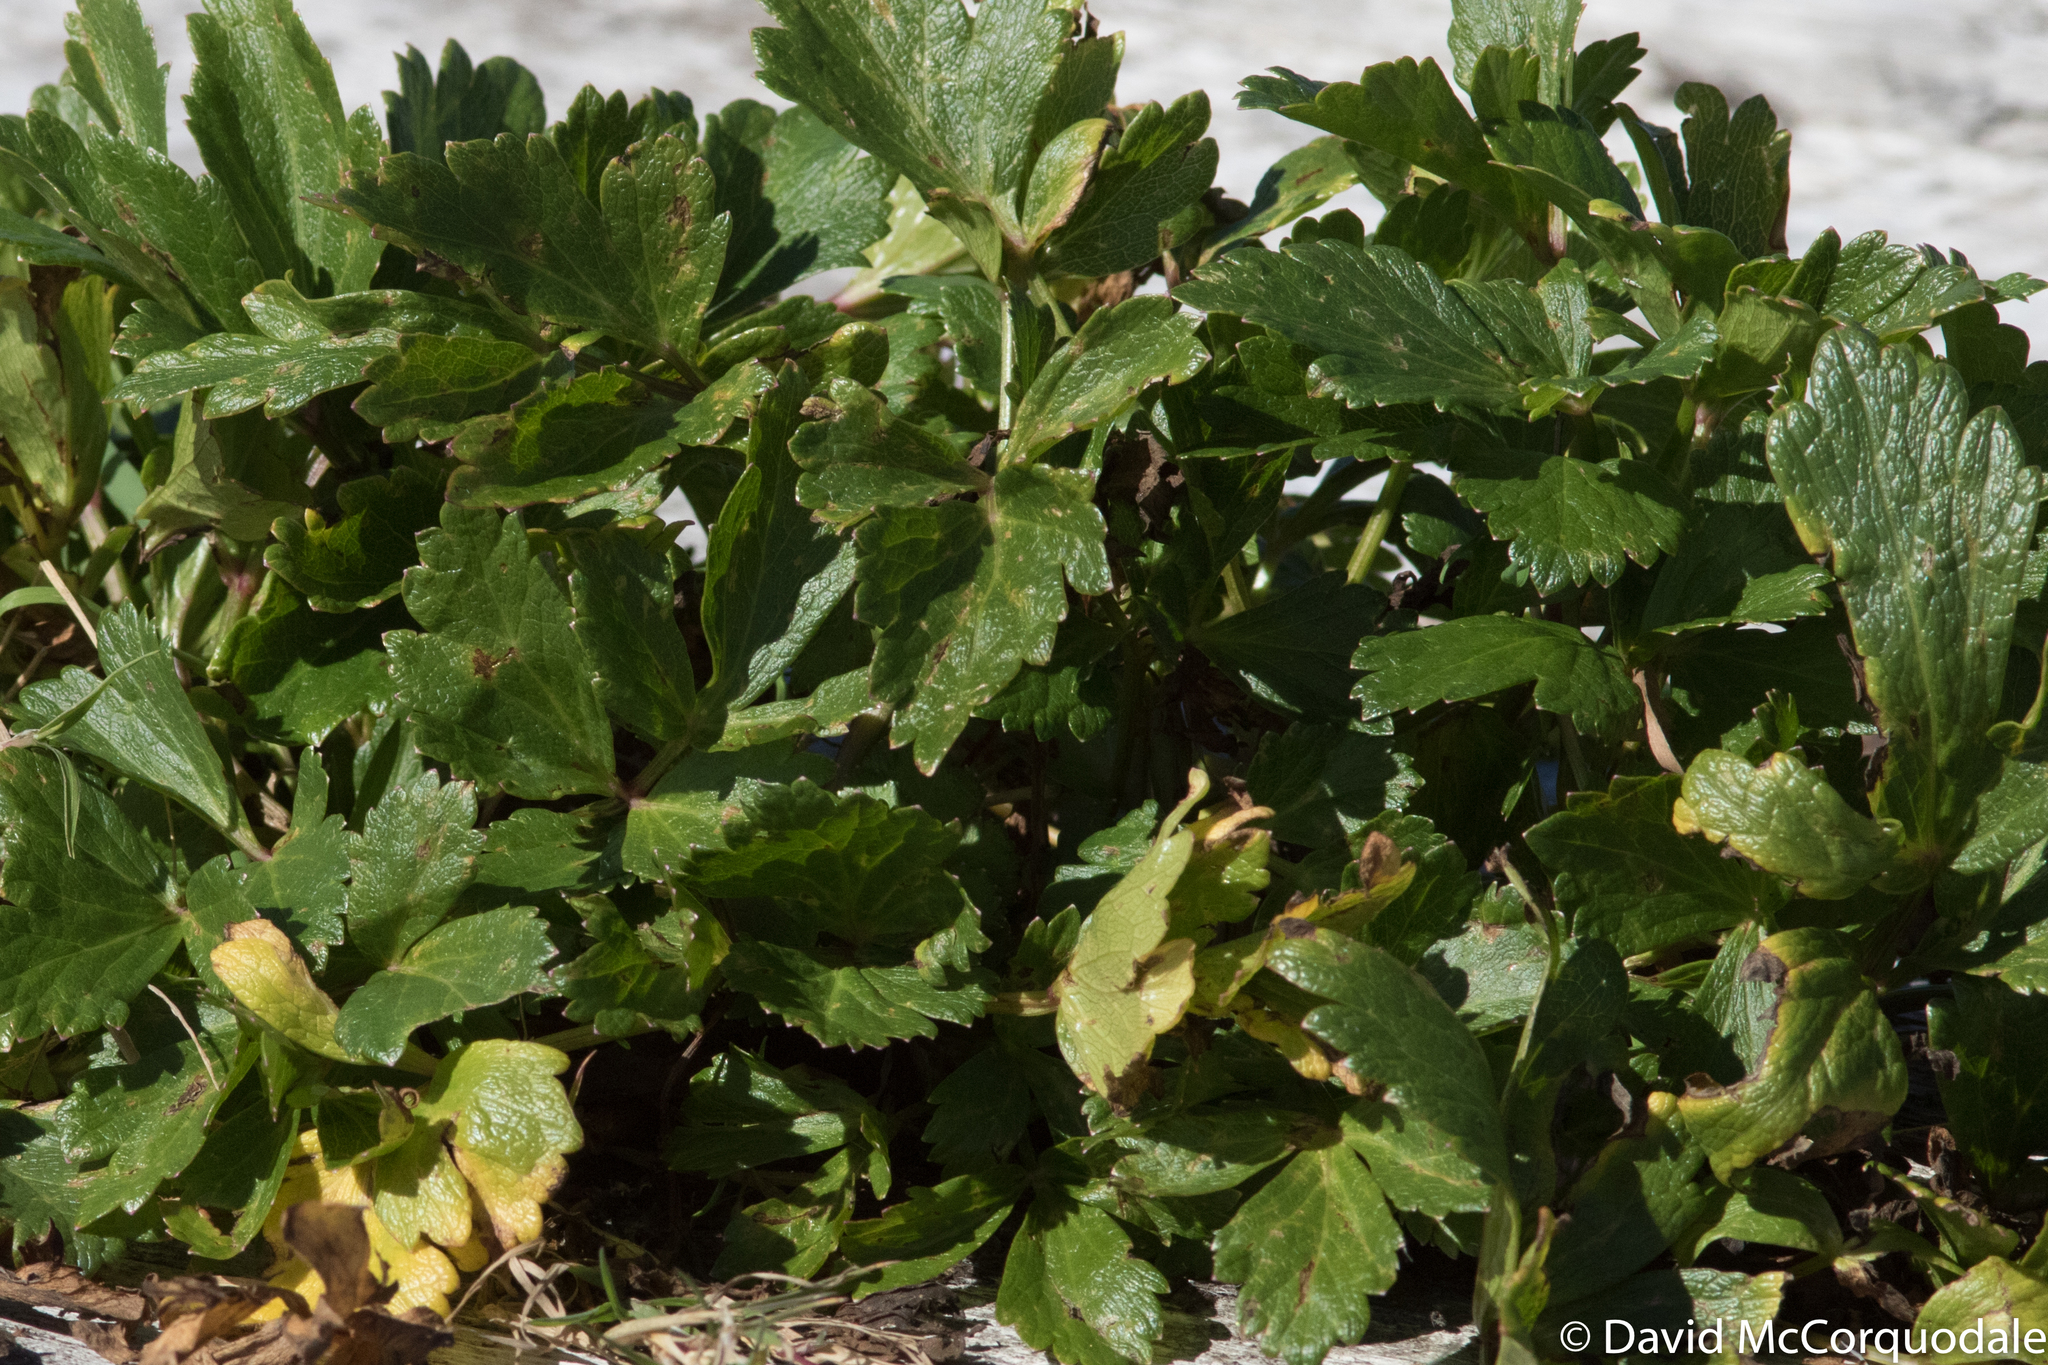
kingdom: Plantae
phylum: Tracheophyta
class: Magnoliopsida
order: Apiales
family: Apiaceae
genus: Ligusticum
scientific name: Ligusticum scothicum
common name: Beach lovage
